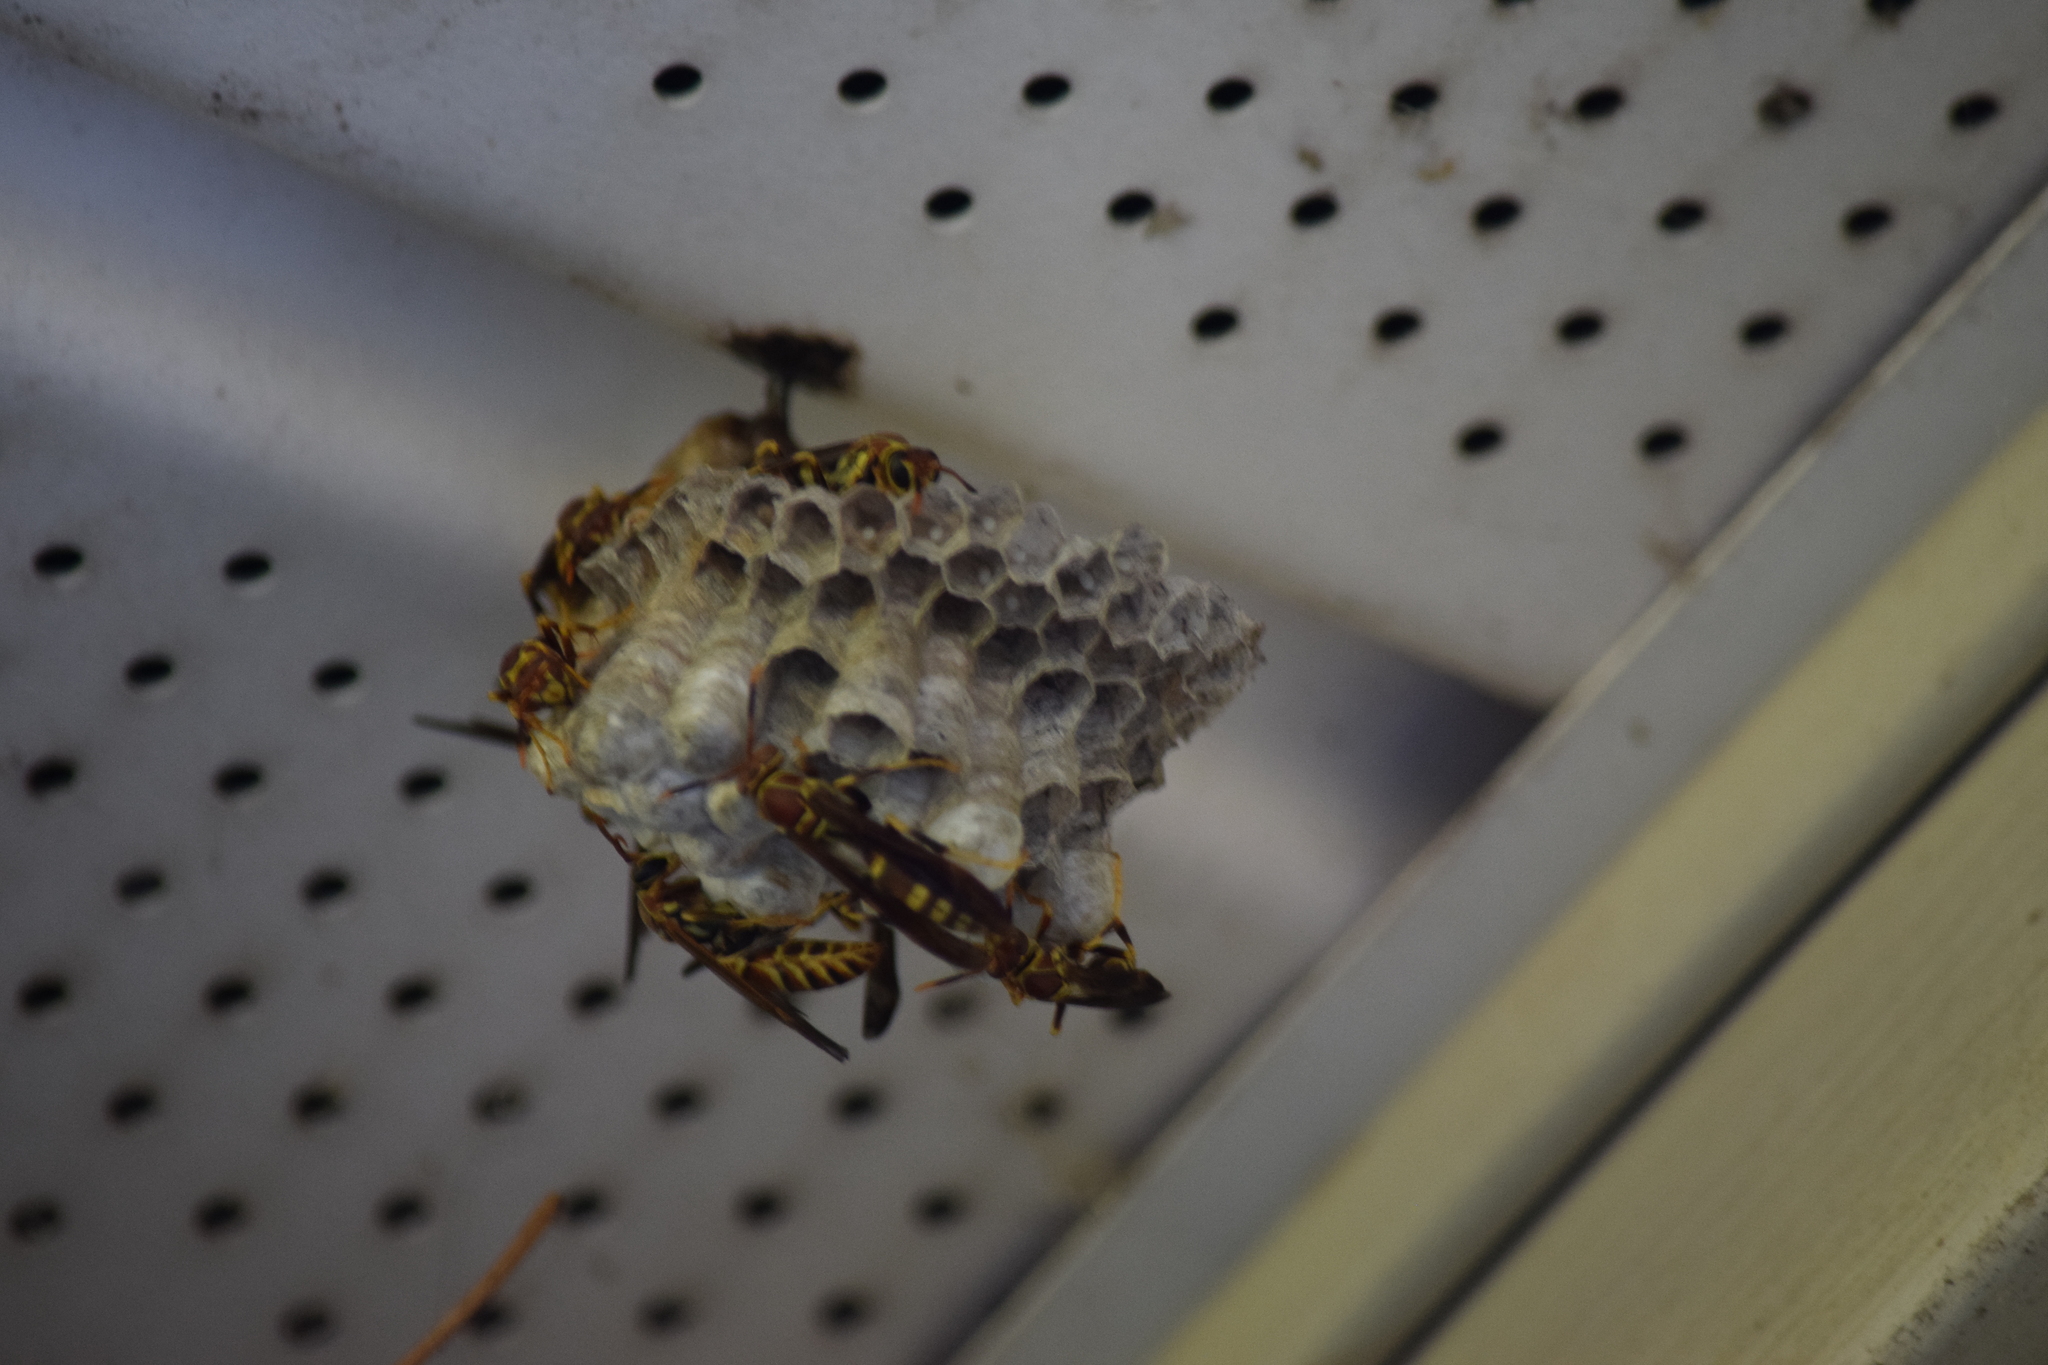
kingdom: Animalia
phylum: Arthropoda
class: Insecta
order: Hymenoptera
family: Eumenidae
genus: Polistes
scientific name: Polistes exclamans
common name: Paper wasp
